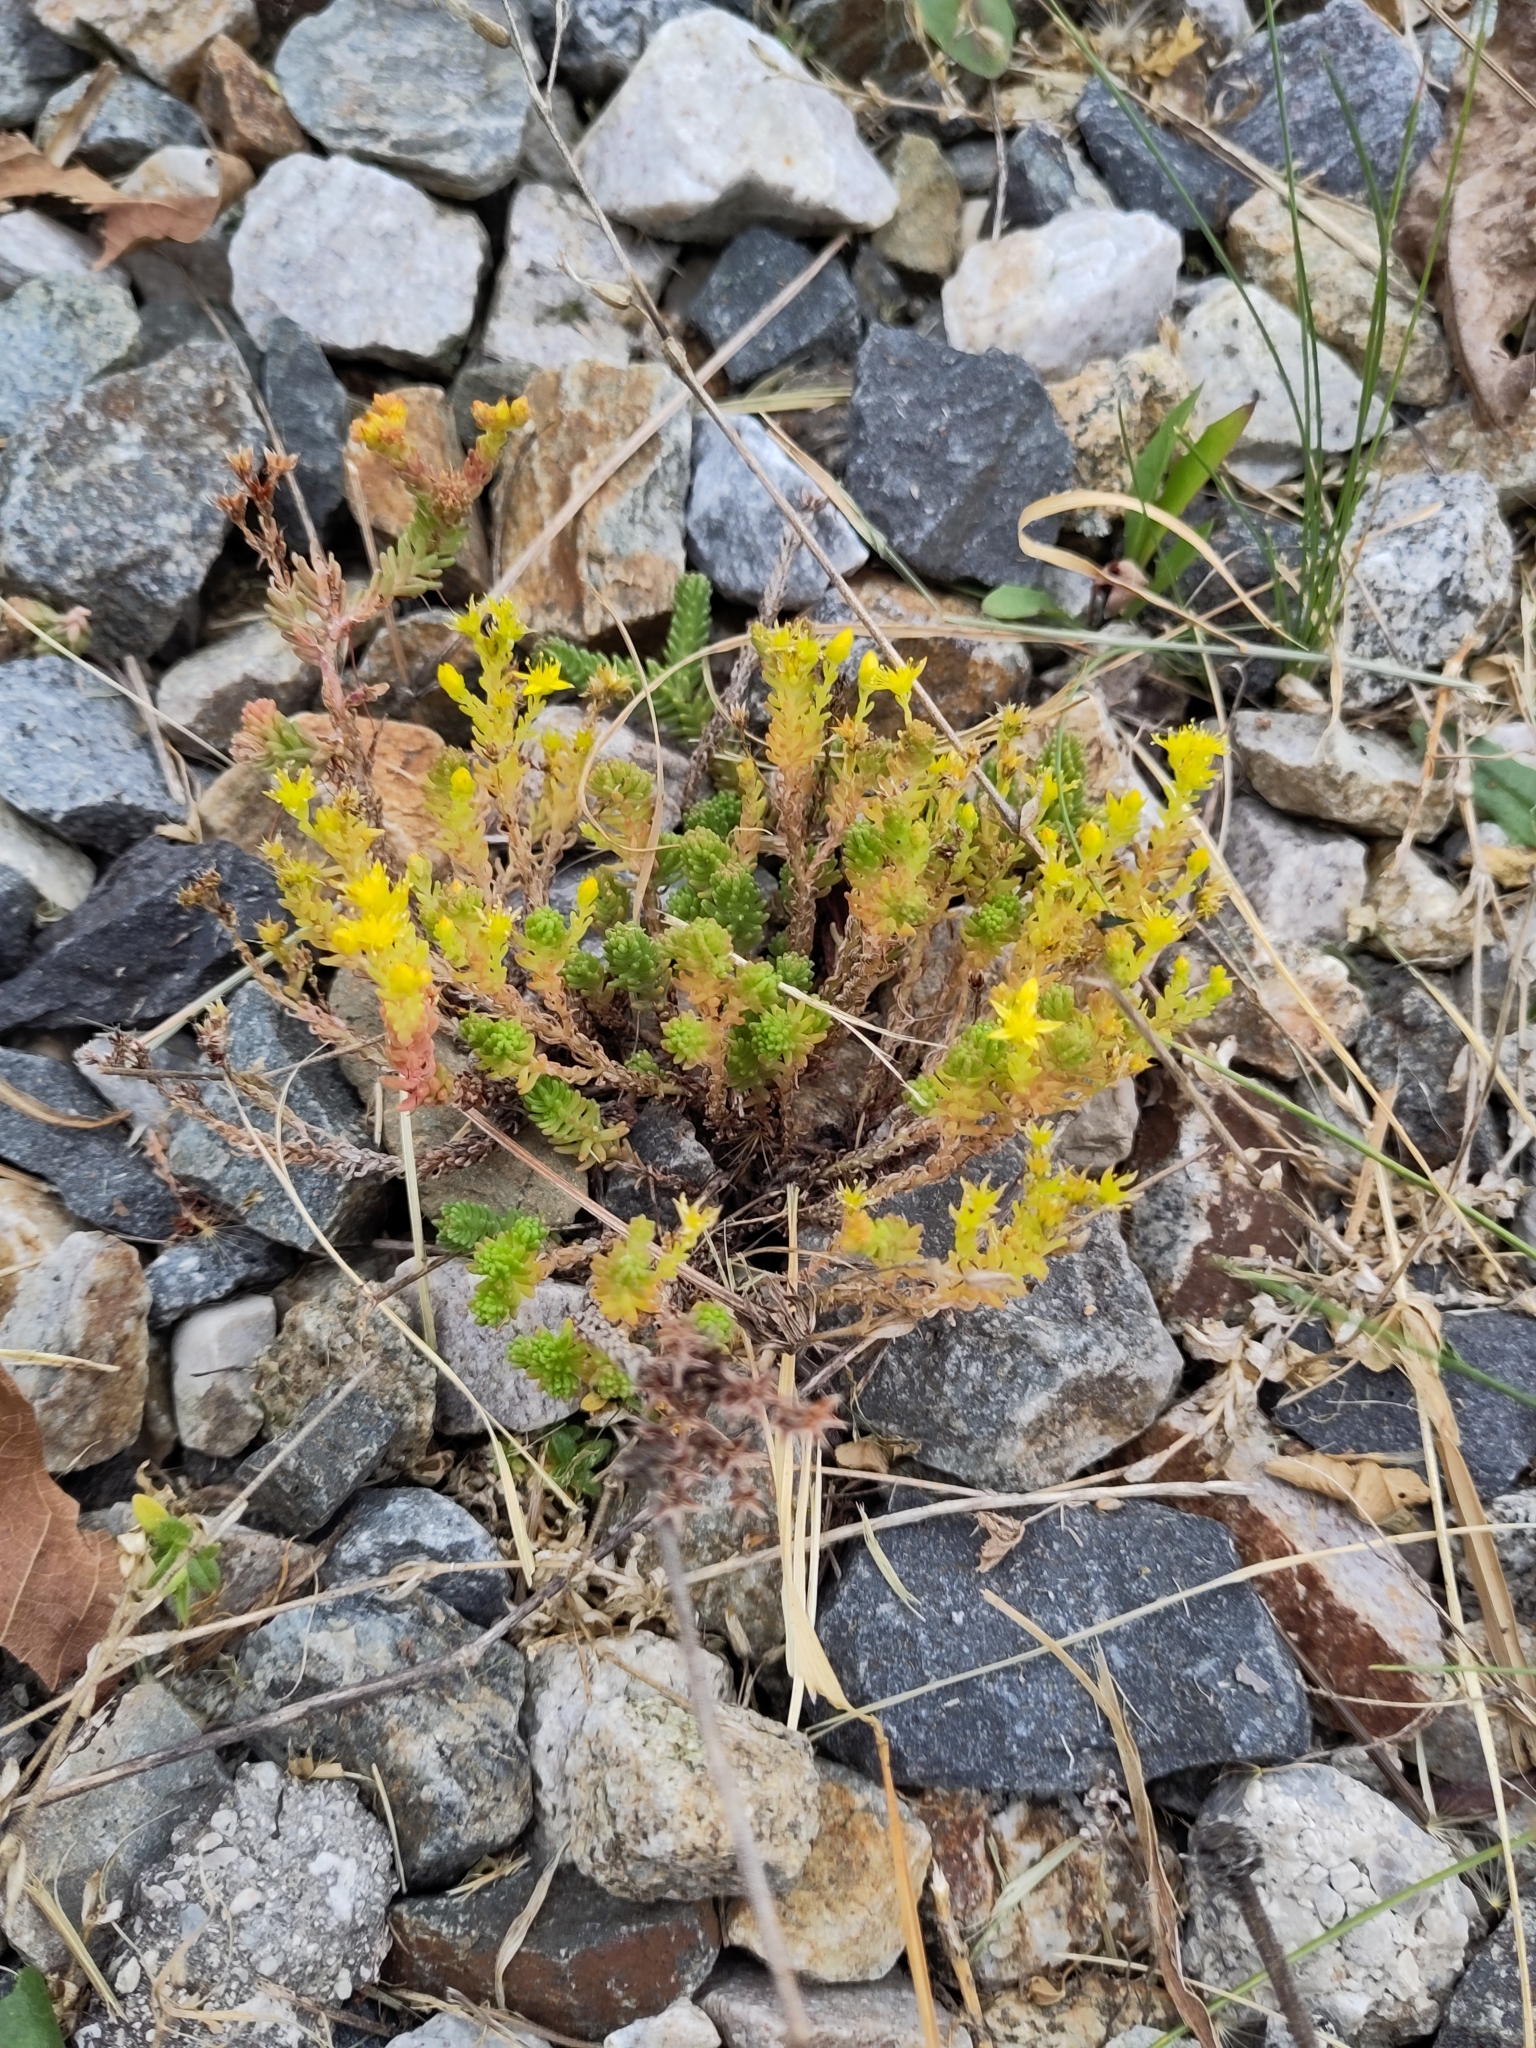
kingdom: Plantae
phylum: Tracheophyta
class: Magnoliopsida
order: Saxifragales
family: Crassulaceae
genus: Sedum
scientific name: Sedum sexangulare
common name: Tasteless stonecrop
